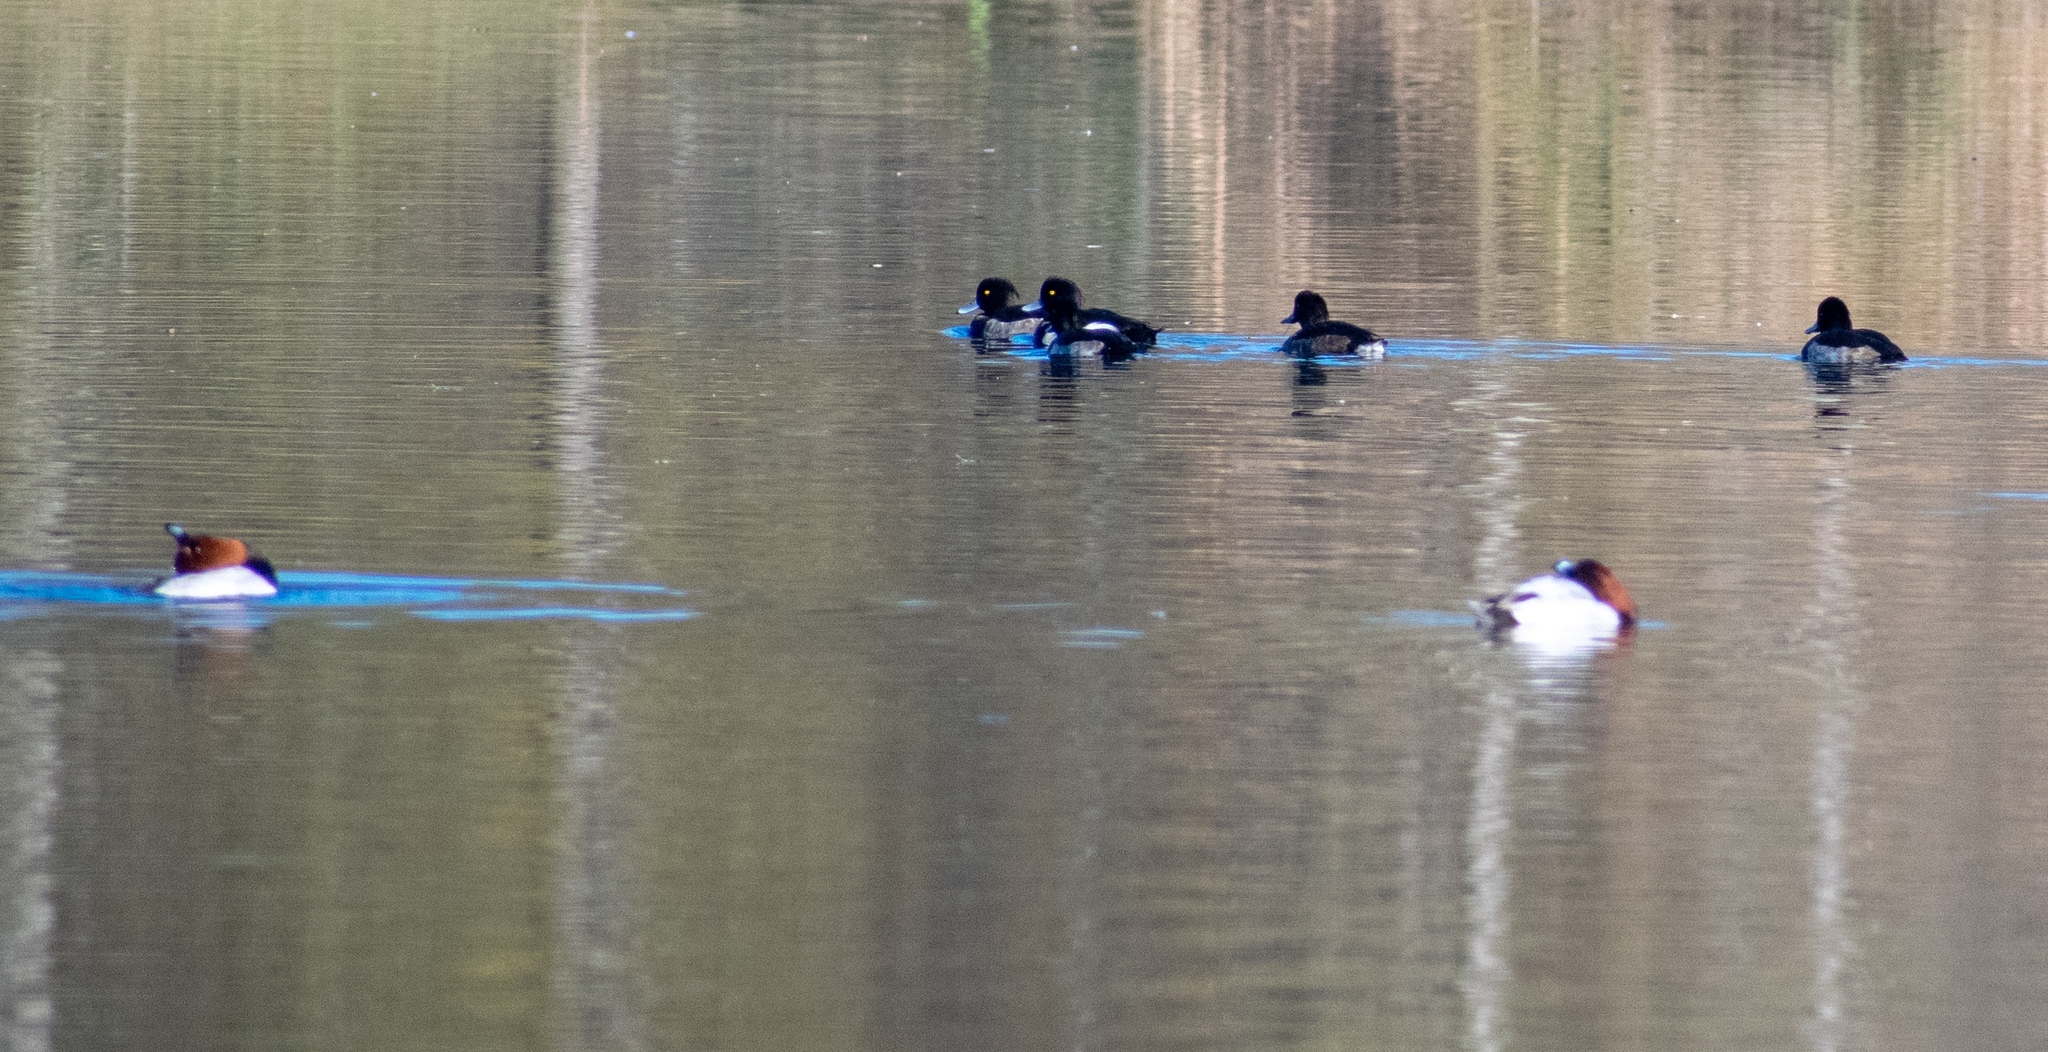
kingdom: Animalia
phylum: Chordata
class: Aves
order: Anseriformes
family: Anatidae
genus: Aythya
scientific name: Aythya ferina
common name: Common pochard
